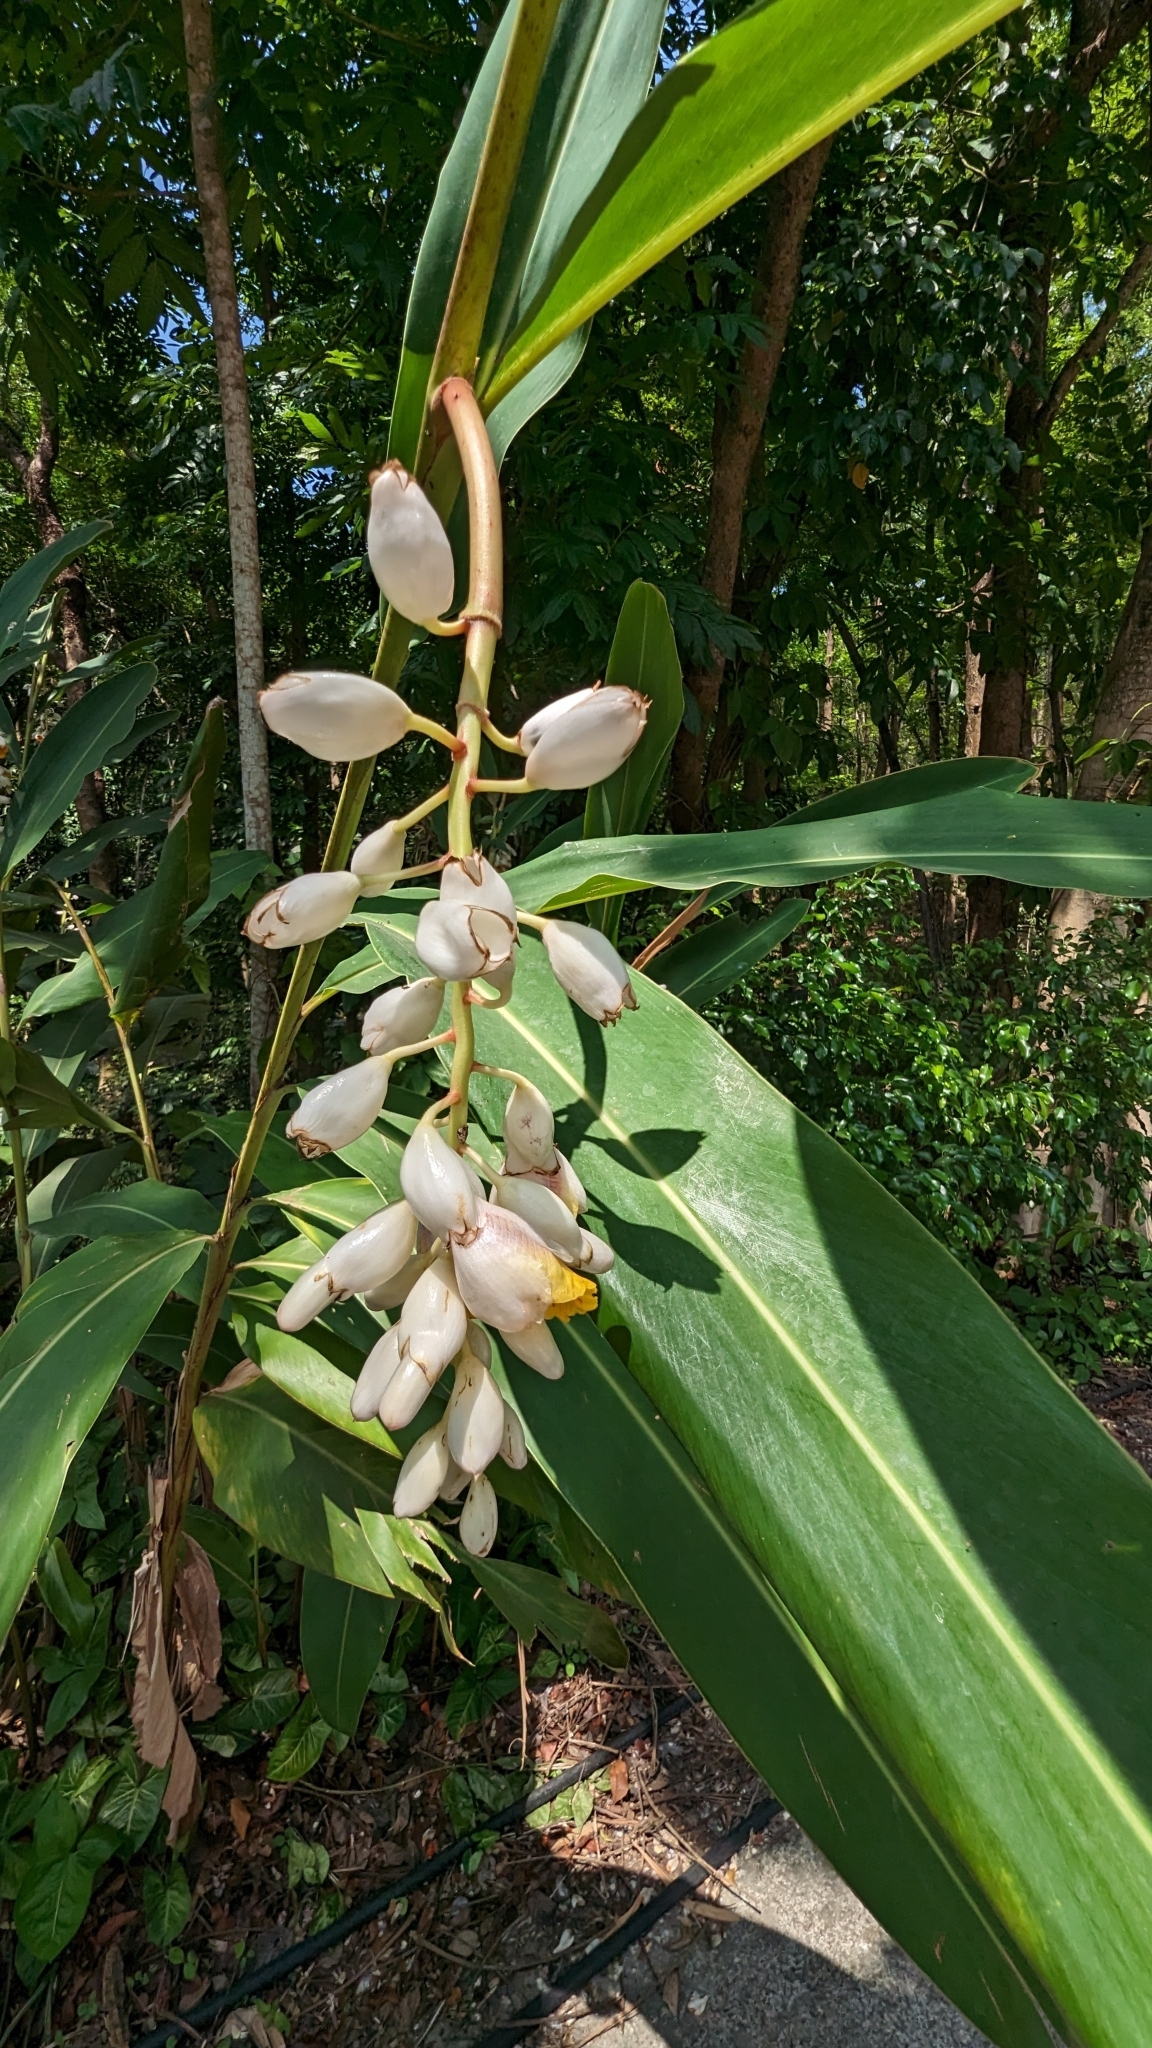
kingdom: Plantae
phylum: Tracheophyta
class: Liliopsida
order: Zingiberales
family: Zingiberaceae
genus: Alpinia
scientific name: Alpinia zerumbet
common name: Shellplant
